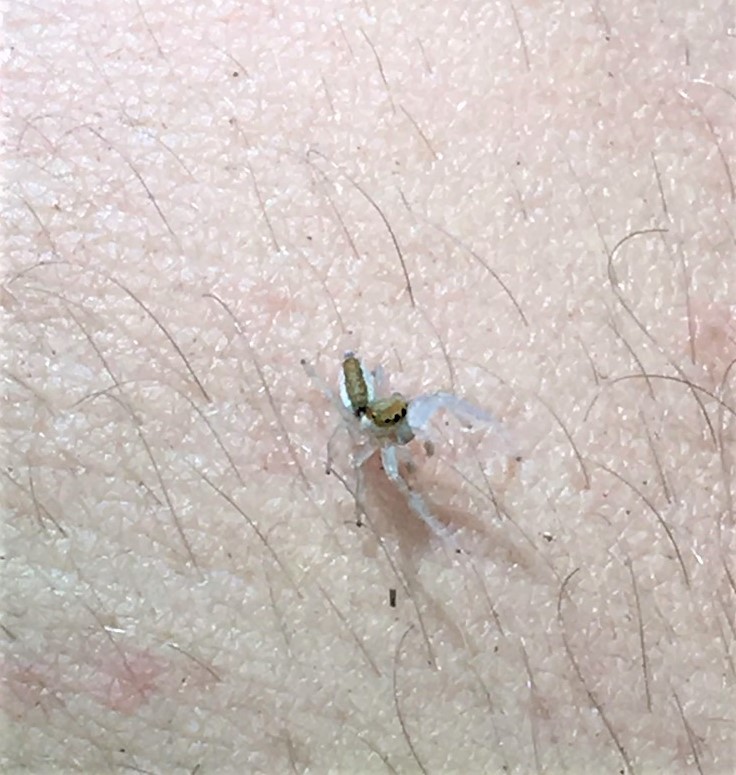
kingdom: Animalia
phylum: Arthropoda
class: Arachnida
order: Araneae
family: Salticidae
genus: Hentzia
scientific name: Hentzia palmarum
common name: Common hentz jumping spider
